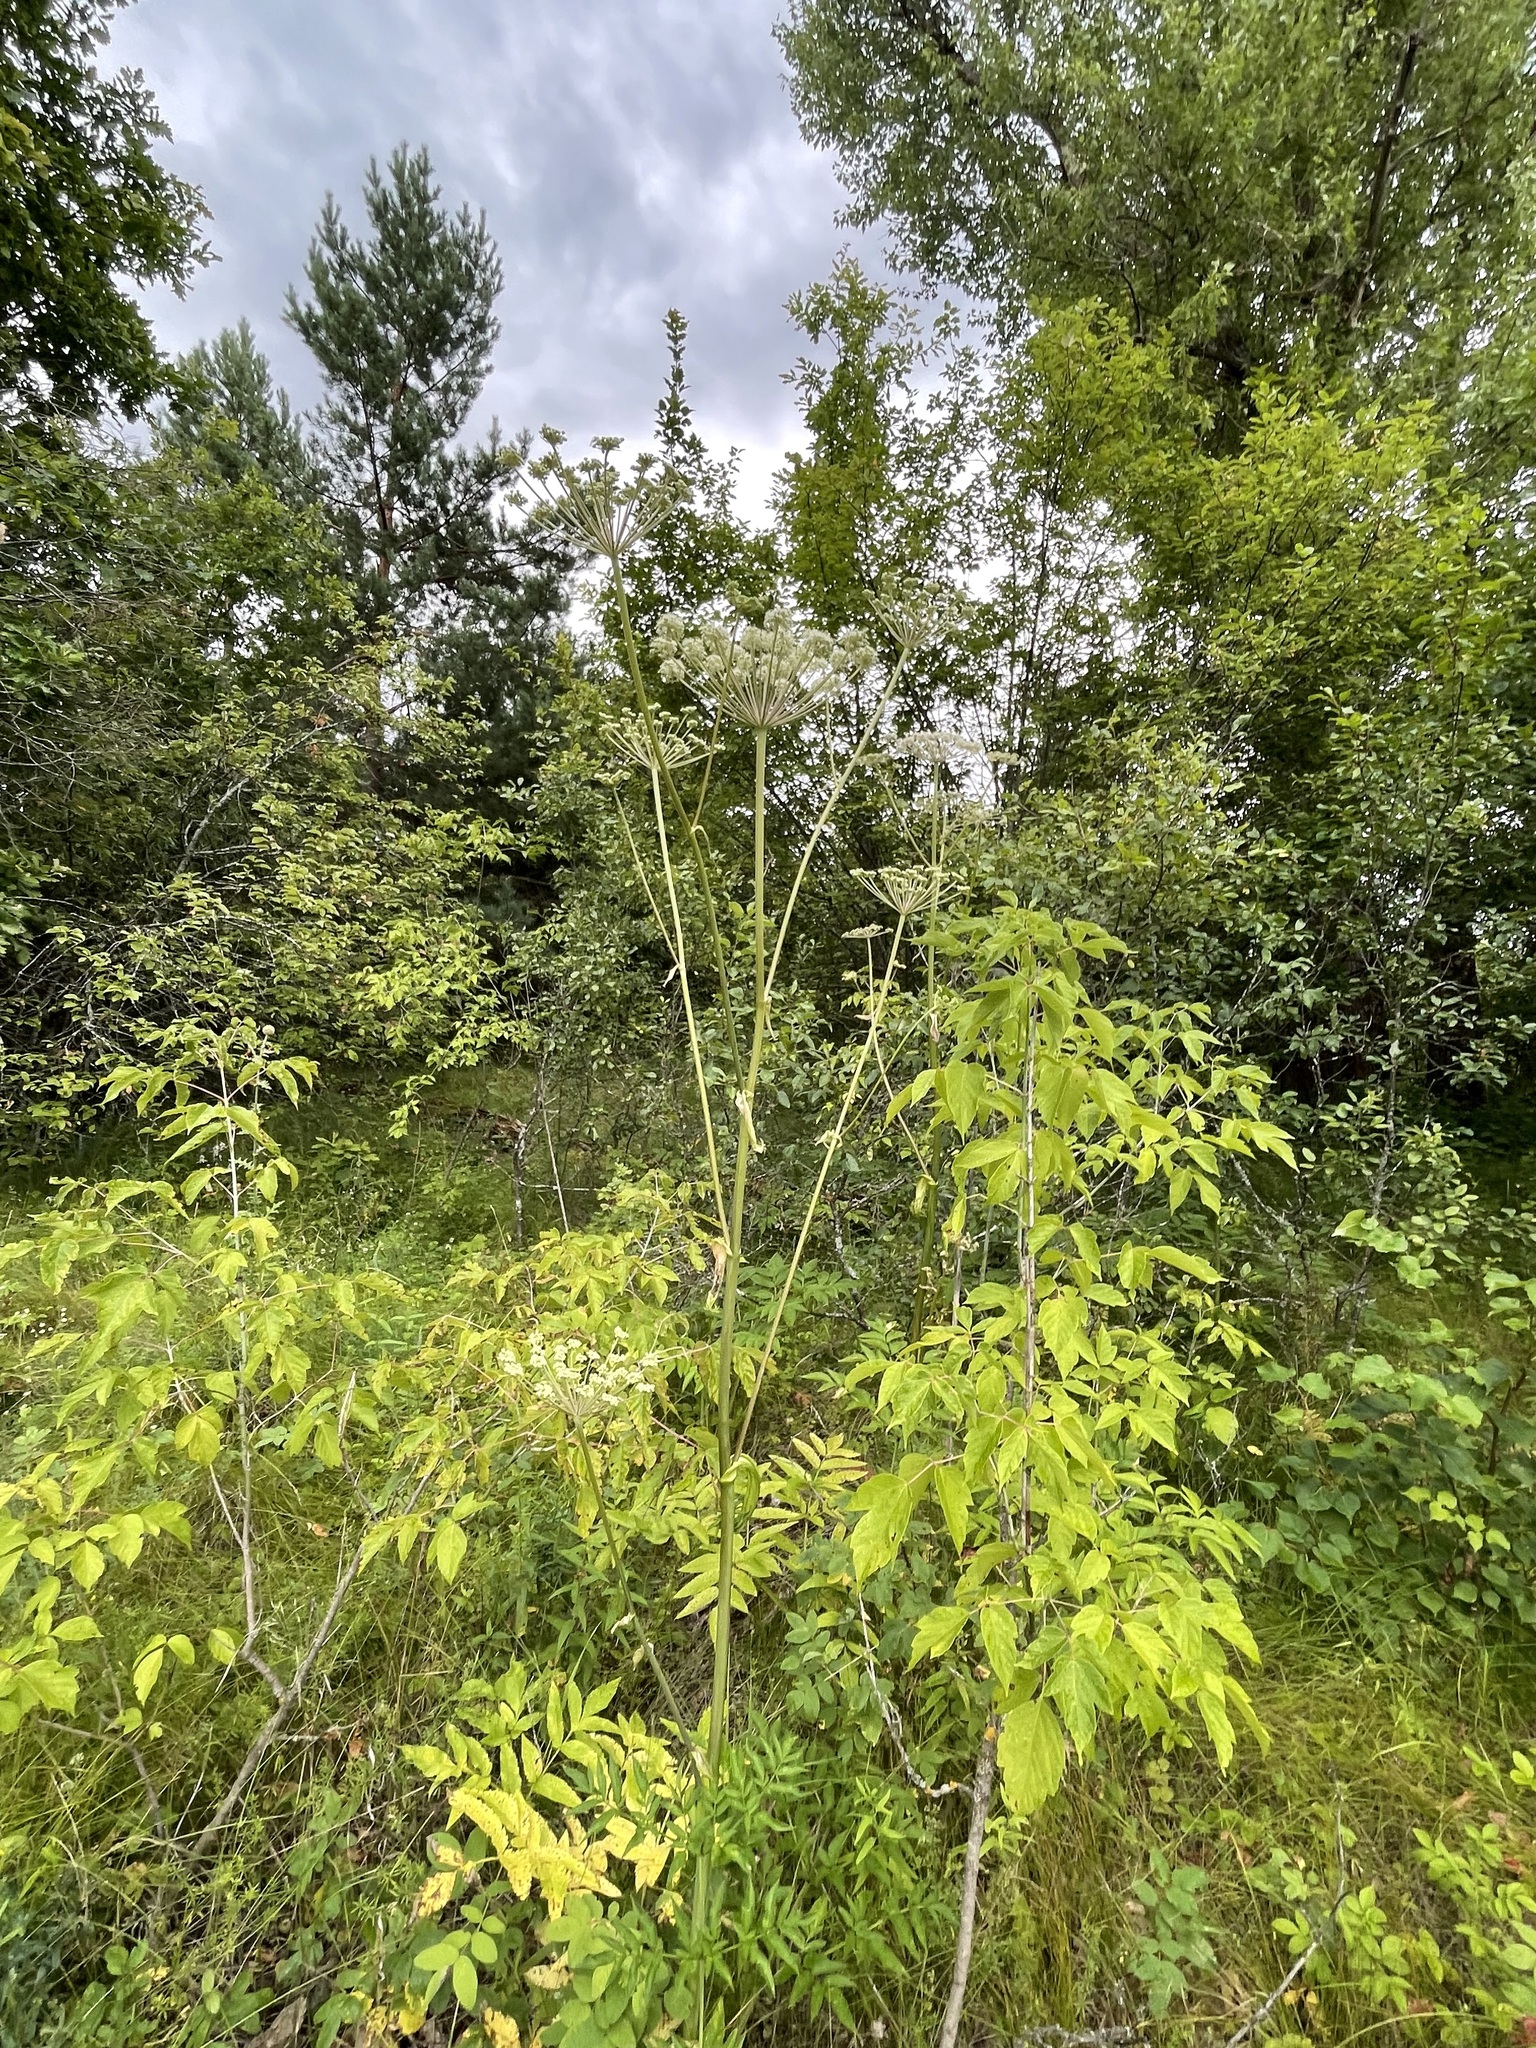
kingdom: Plantae
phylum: Tracheophyta
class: Magnoliopsida
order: Apiales
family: Apiaceae
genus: Angelica
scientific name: Angelica sylvestris
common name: Wild angelica
